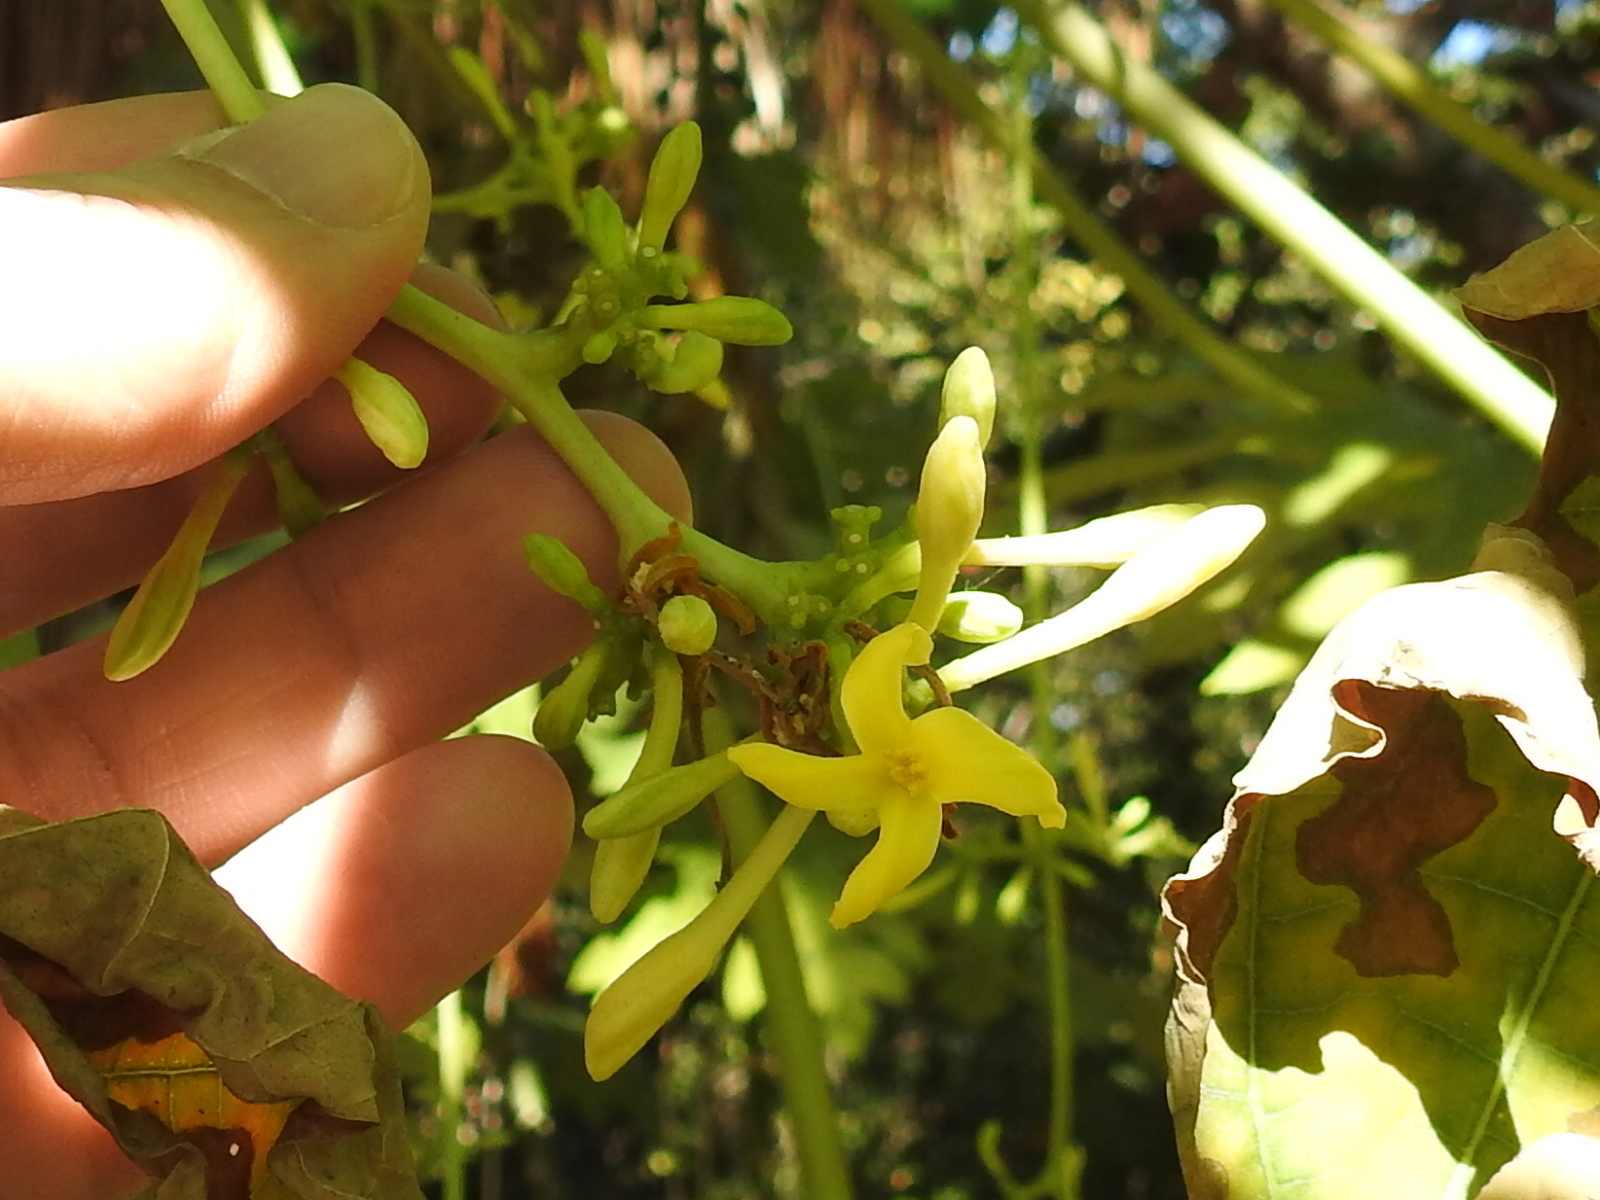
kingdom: Plantae
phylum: Tracheophyta
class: Magnoliopsida
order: Brassicales
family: Caricaceae
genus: Carica
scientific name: Carica papaya
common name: Papaya
